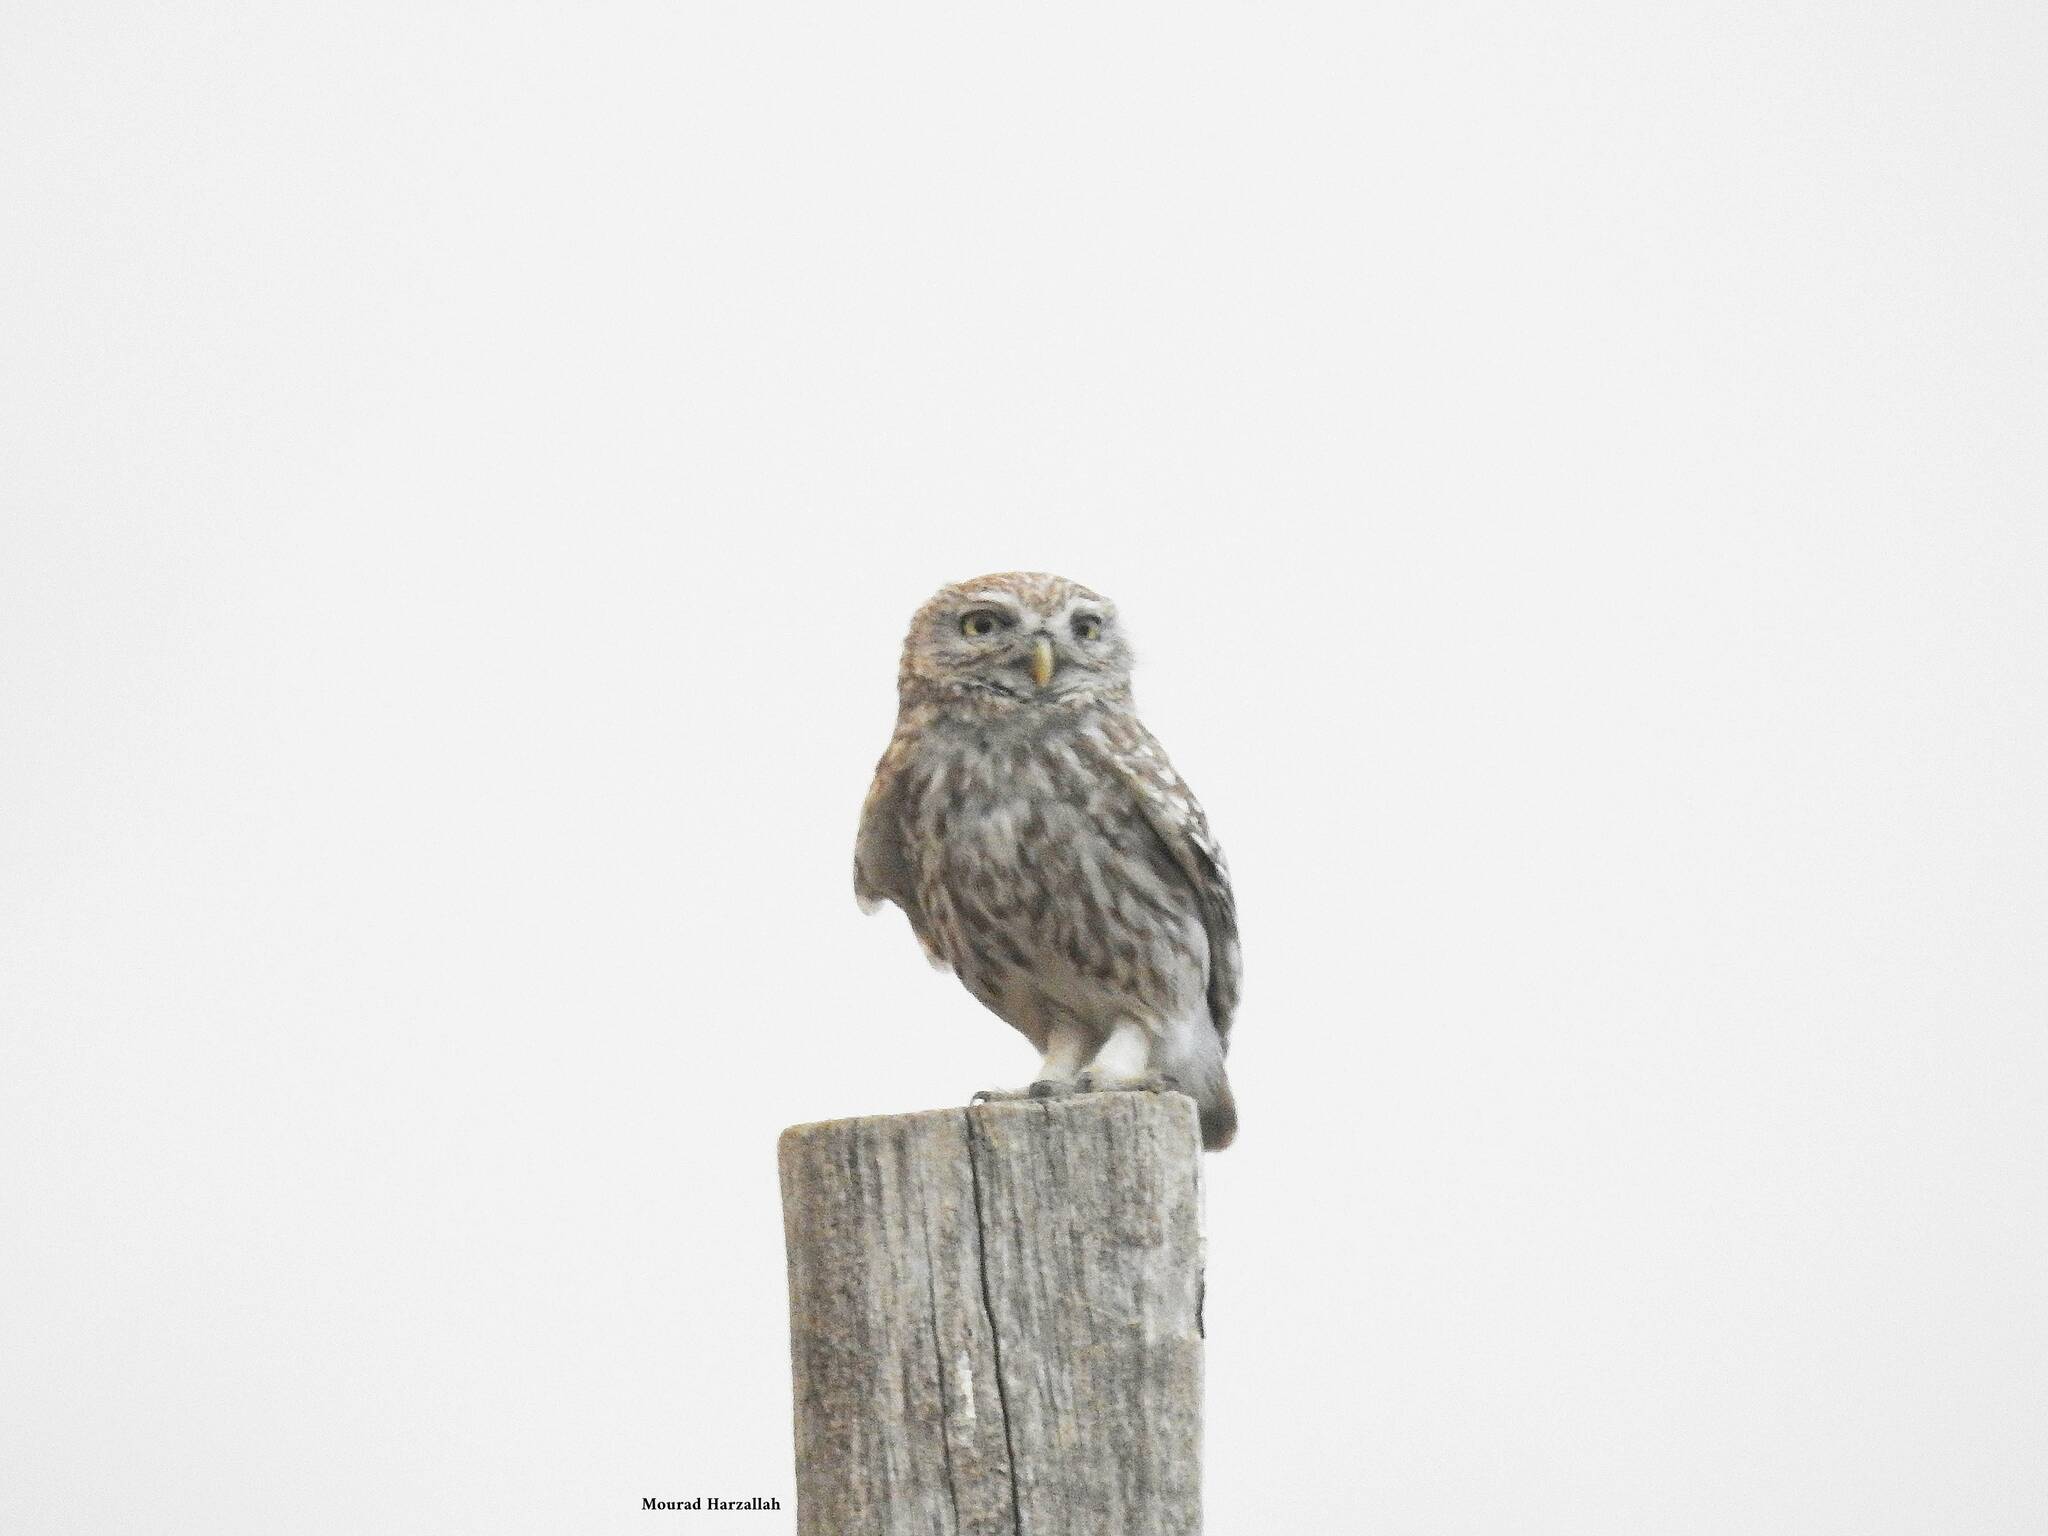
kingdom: Animalia
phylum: Chordata
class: Aves
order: Strigiformes
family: Strigidae
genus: Athene
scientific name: Athene noctua
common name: Little owl
